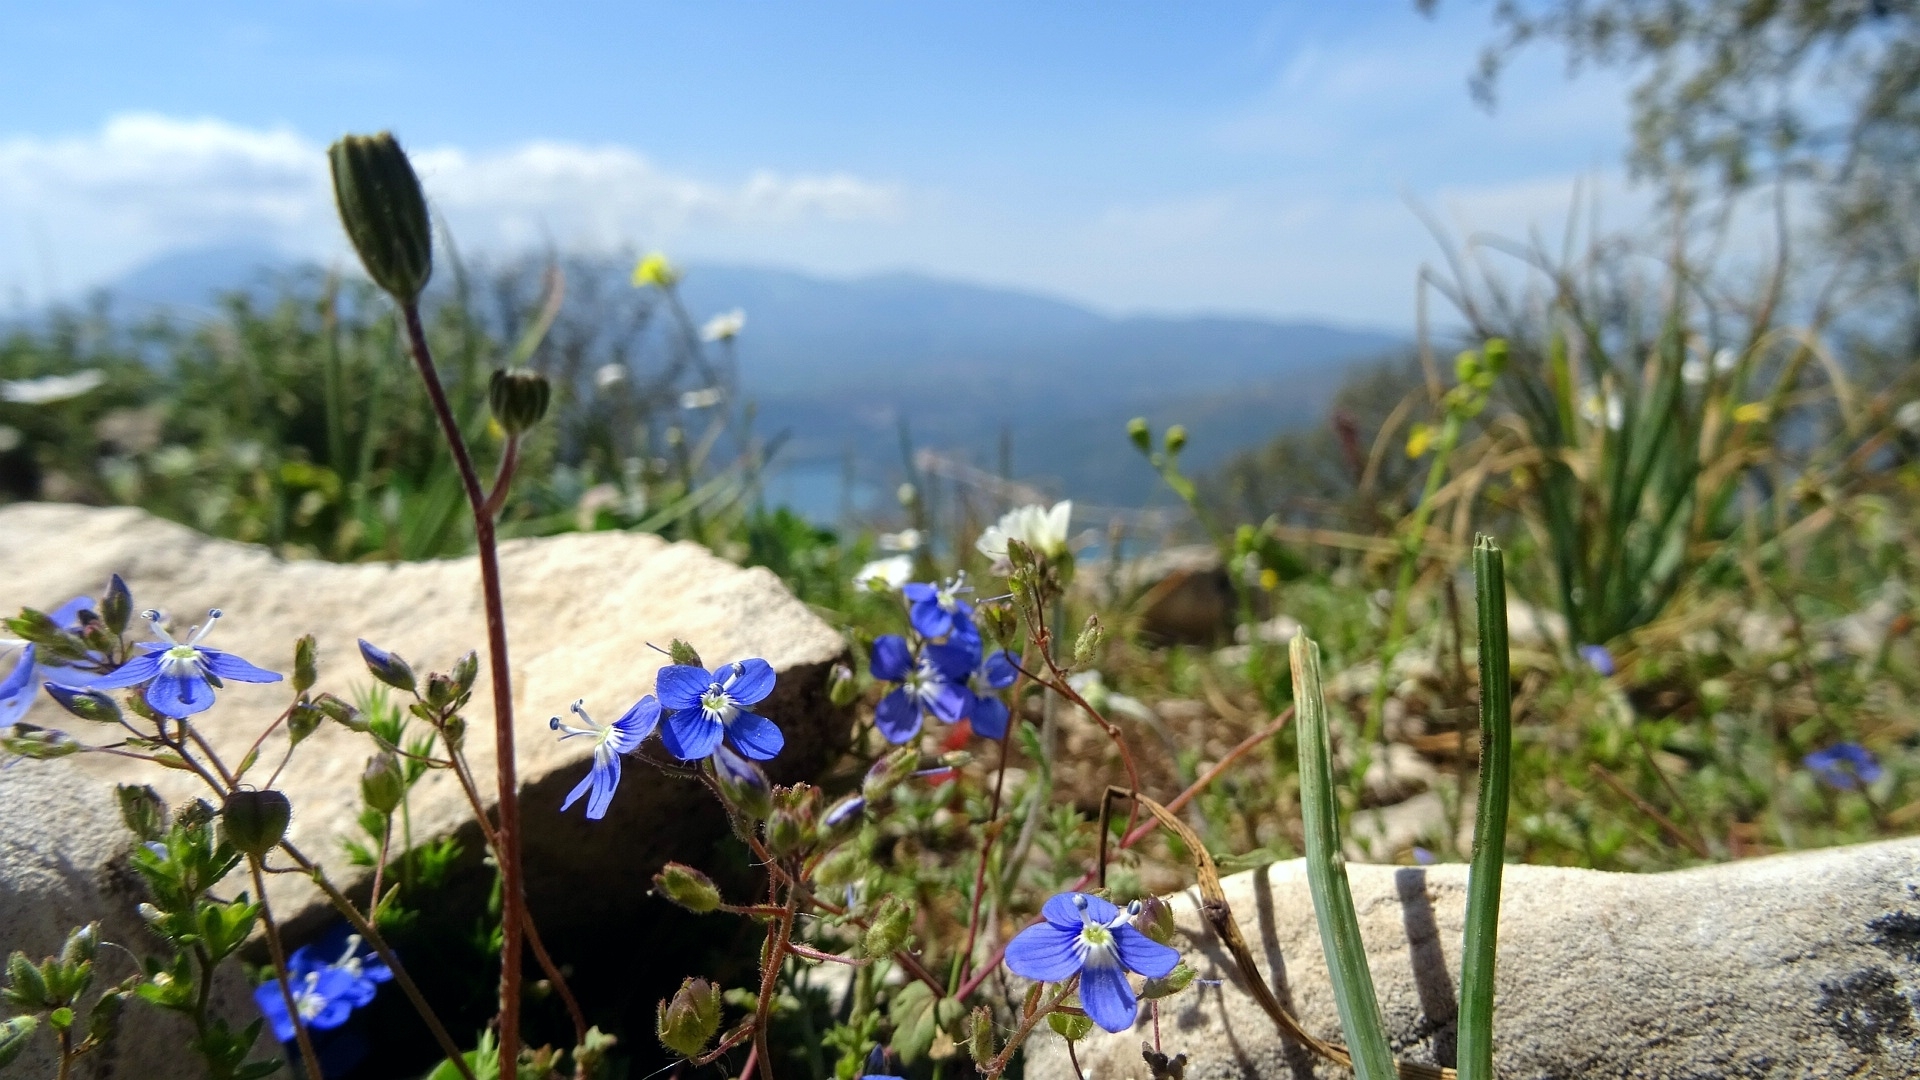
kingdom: Plantae
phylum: Tracheophyta
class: Magnoliopsida
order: Lamiales
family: Plantaginaceae
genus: Veronica
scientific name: Veronica glauca
